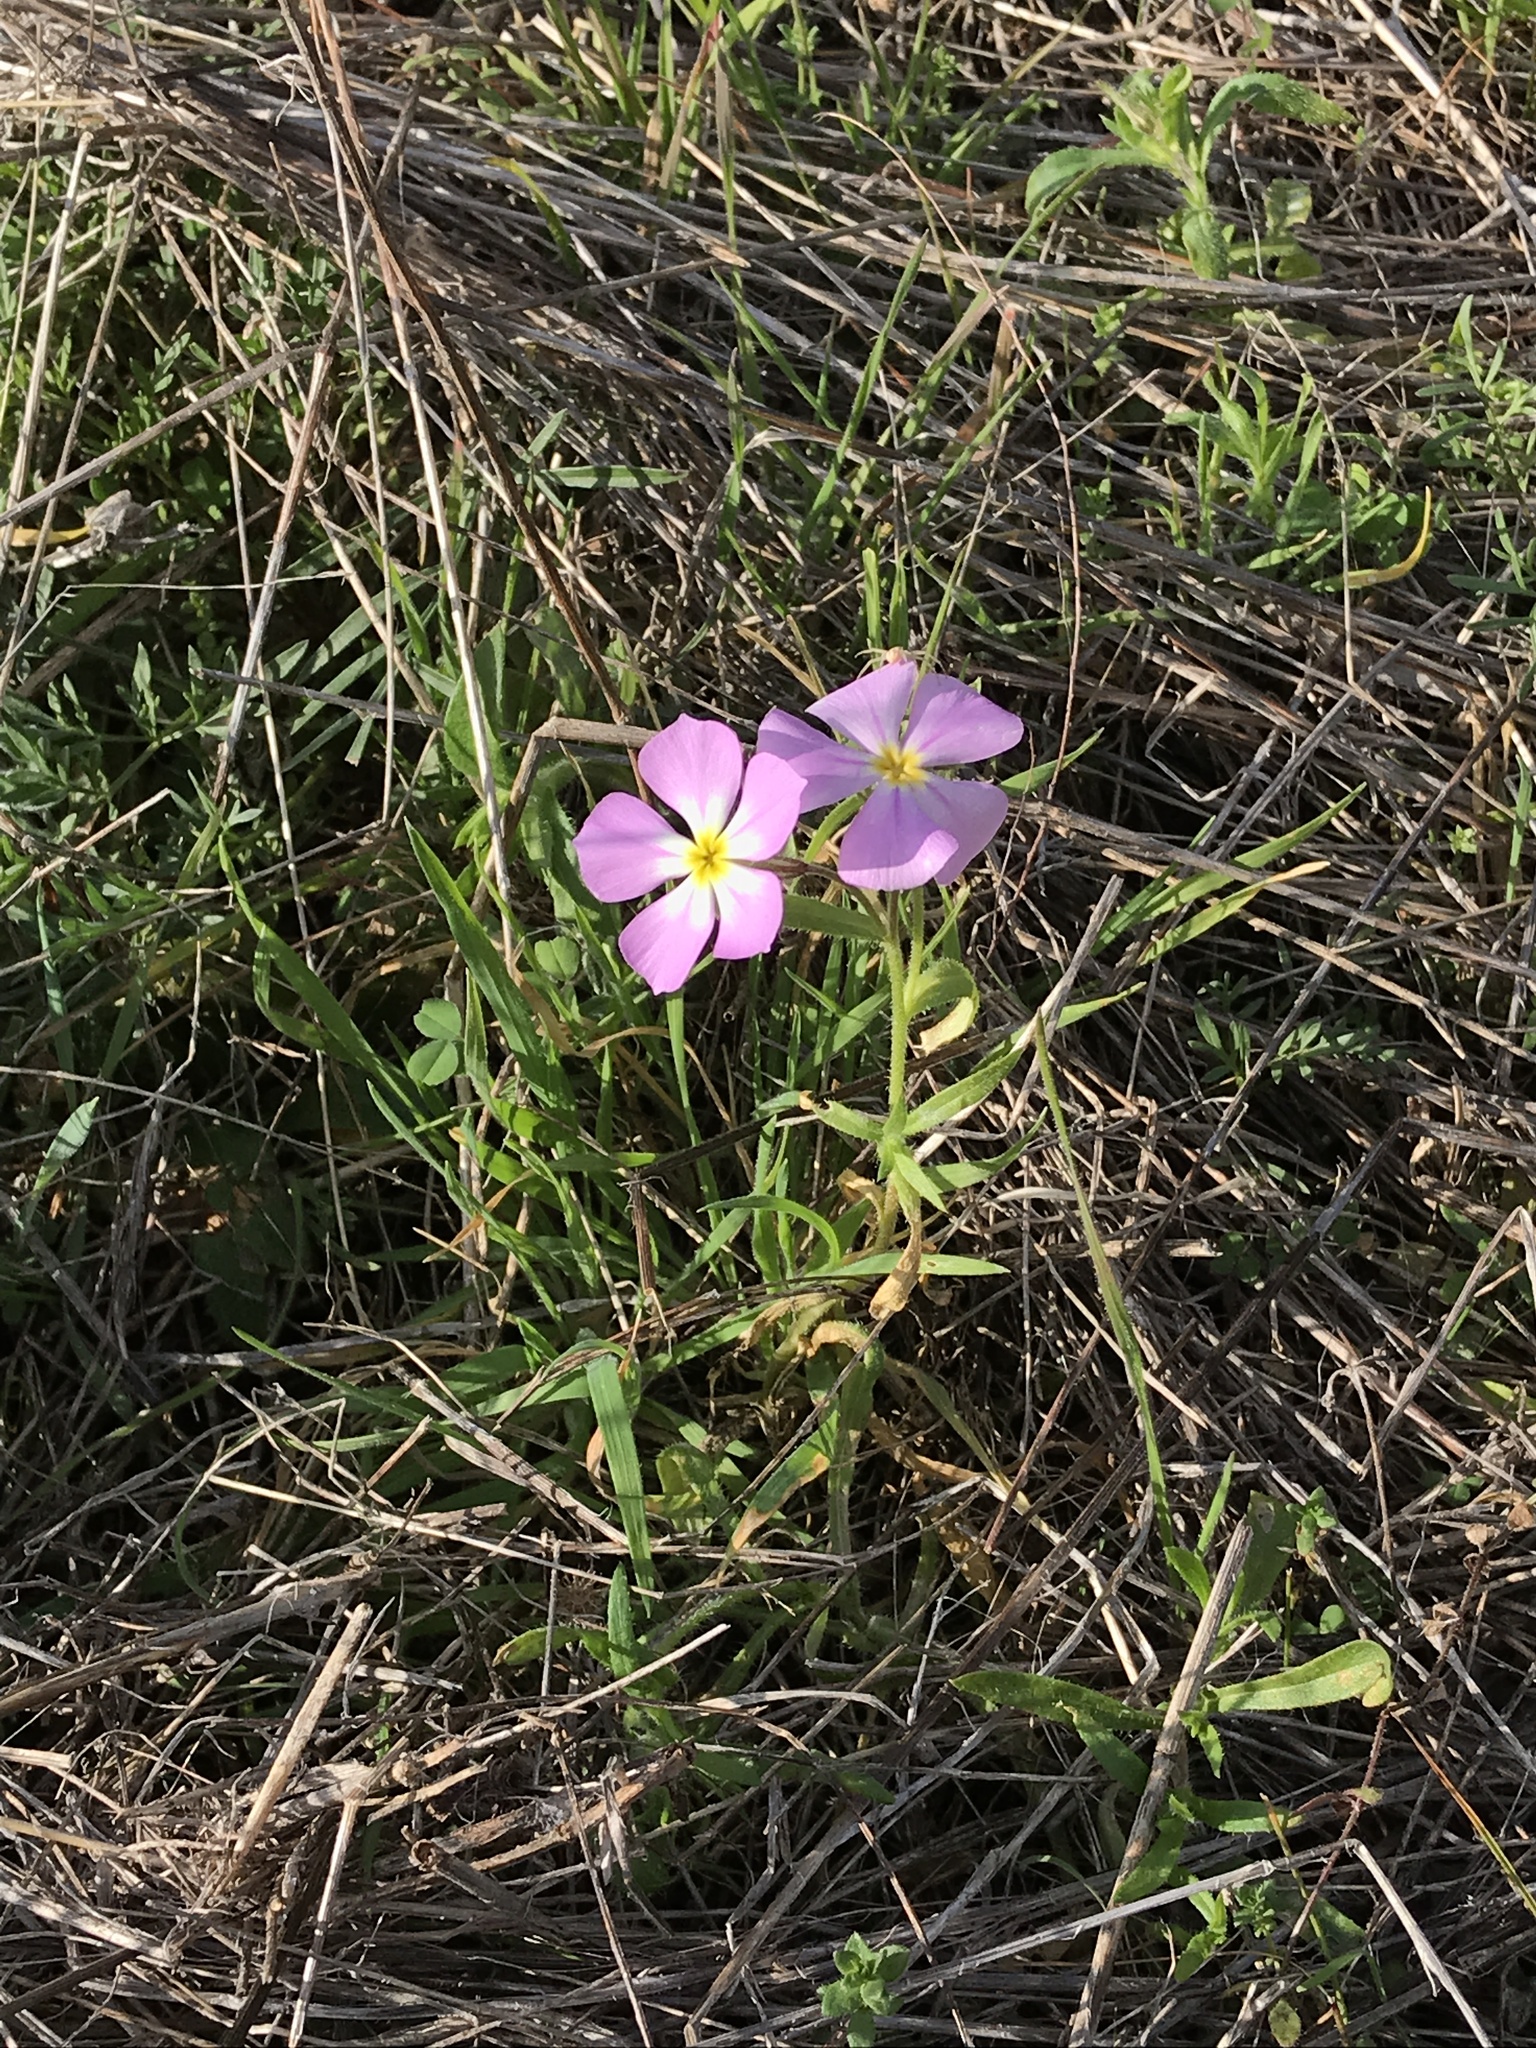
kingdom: Plantae
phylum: Tracheophyta
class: Magnoliopsida
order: Ericales
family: Polemoniaceae
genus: Phlox
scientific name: Phlox roemeriana
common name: Roemer's phlox
